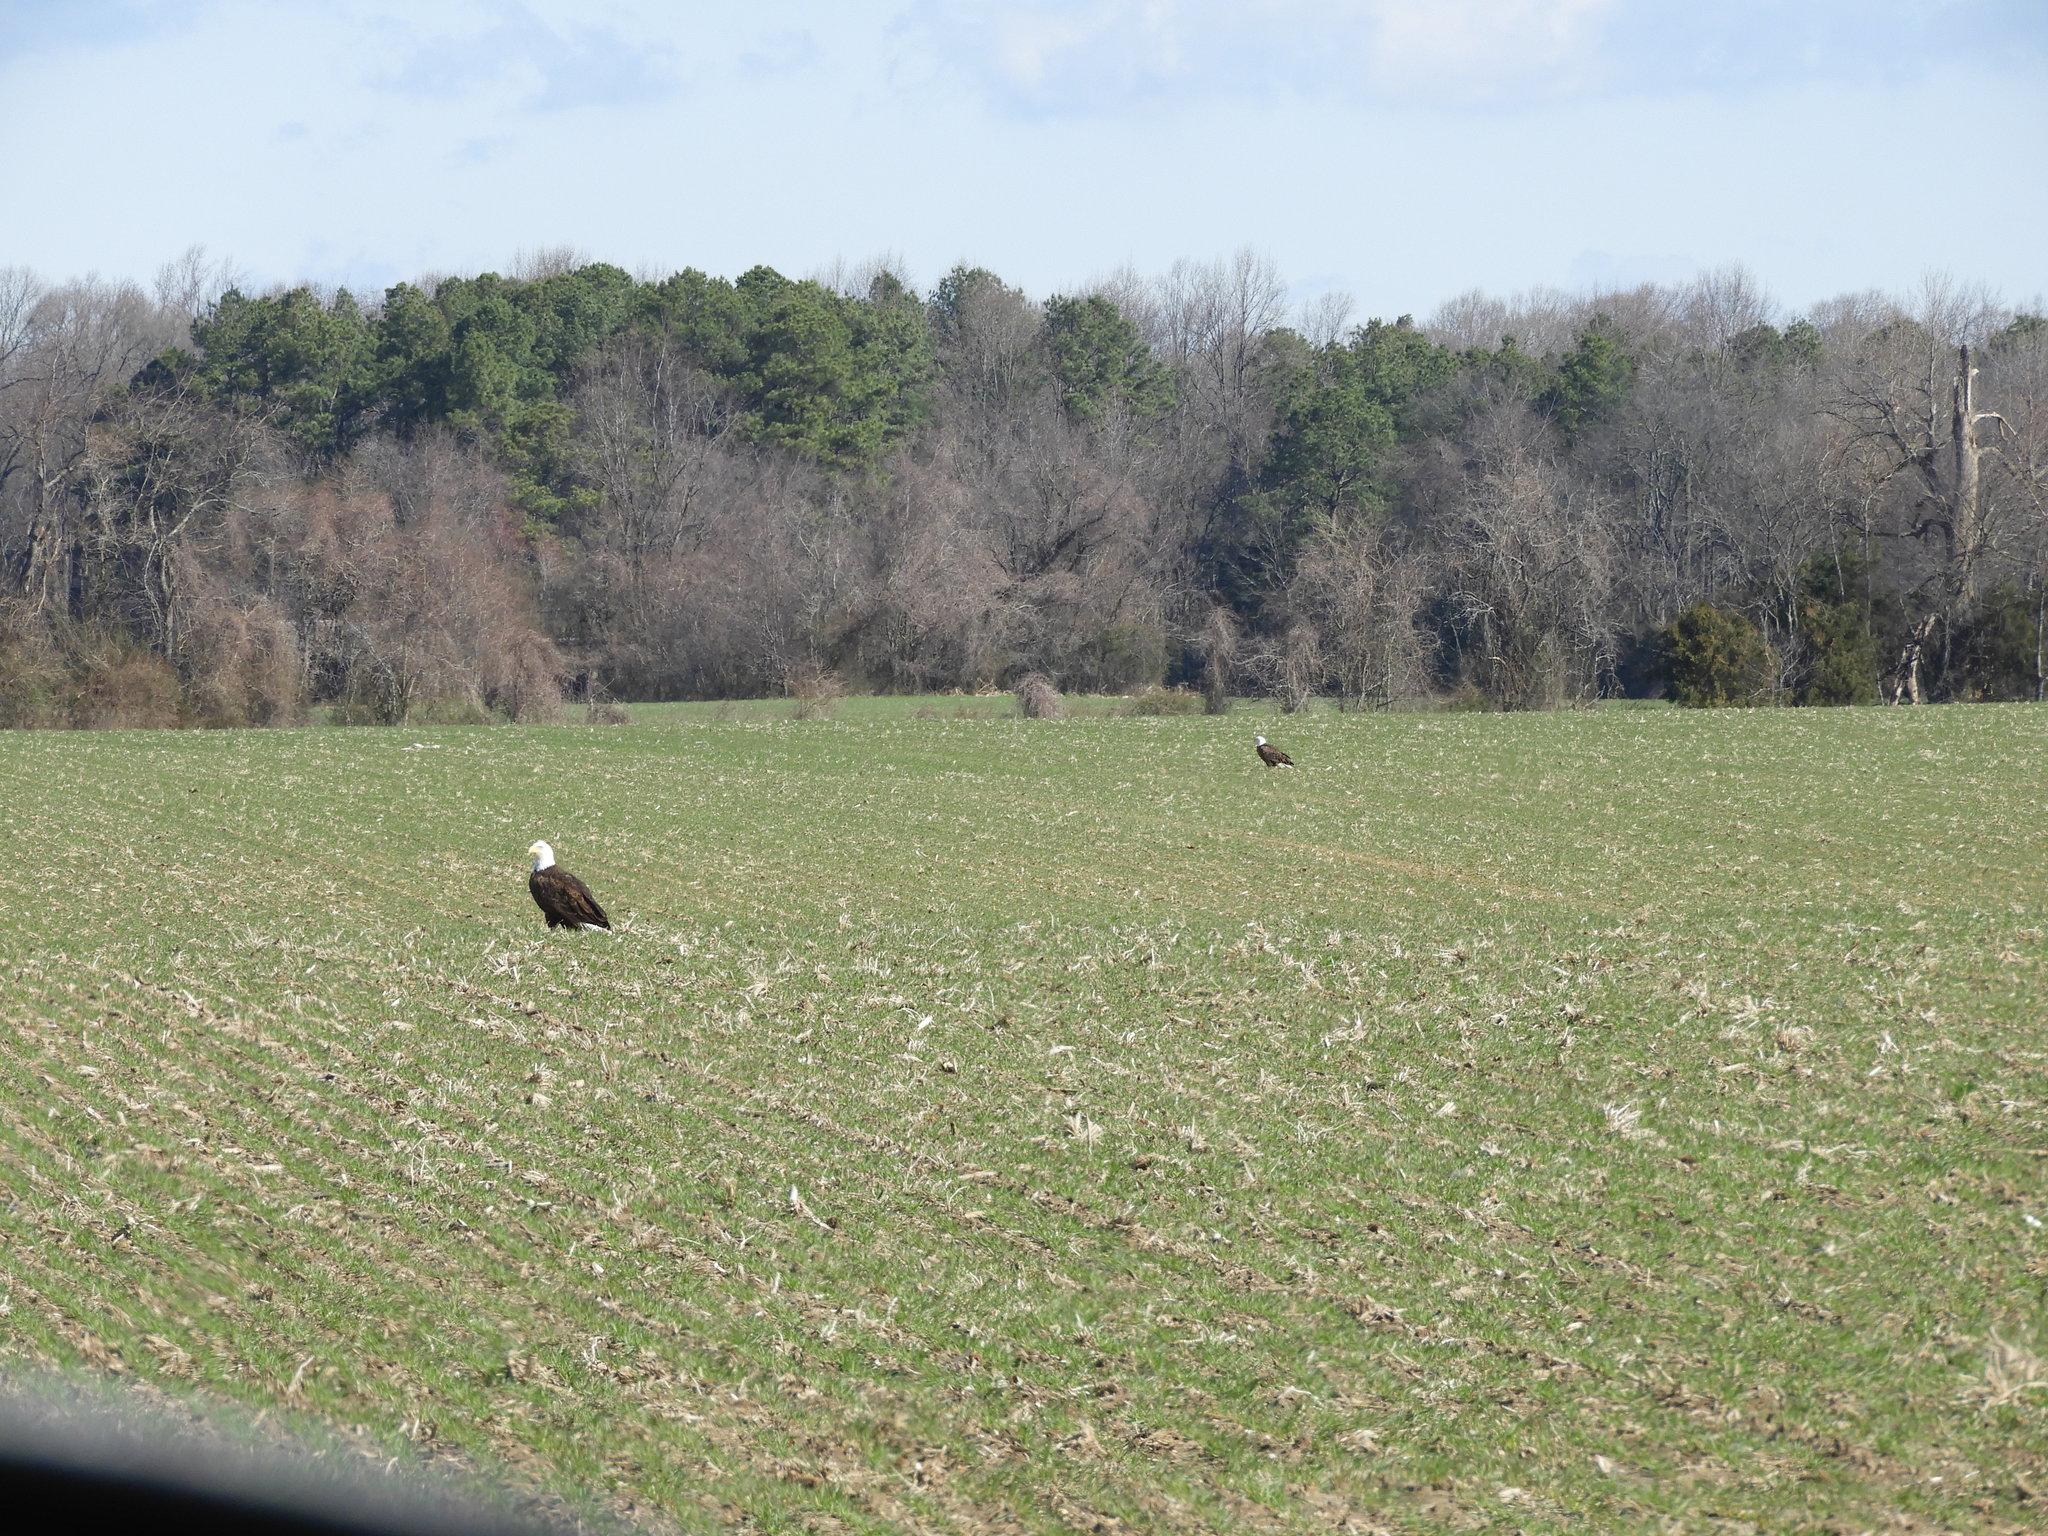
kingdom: Animalia
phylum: Chordata
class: Aves
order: Accipitriformes
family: Accipitridae
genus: Haliaeetus
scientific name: Haliaeetus leucocephalus
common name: Bald eagle
